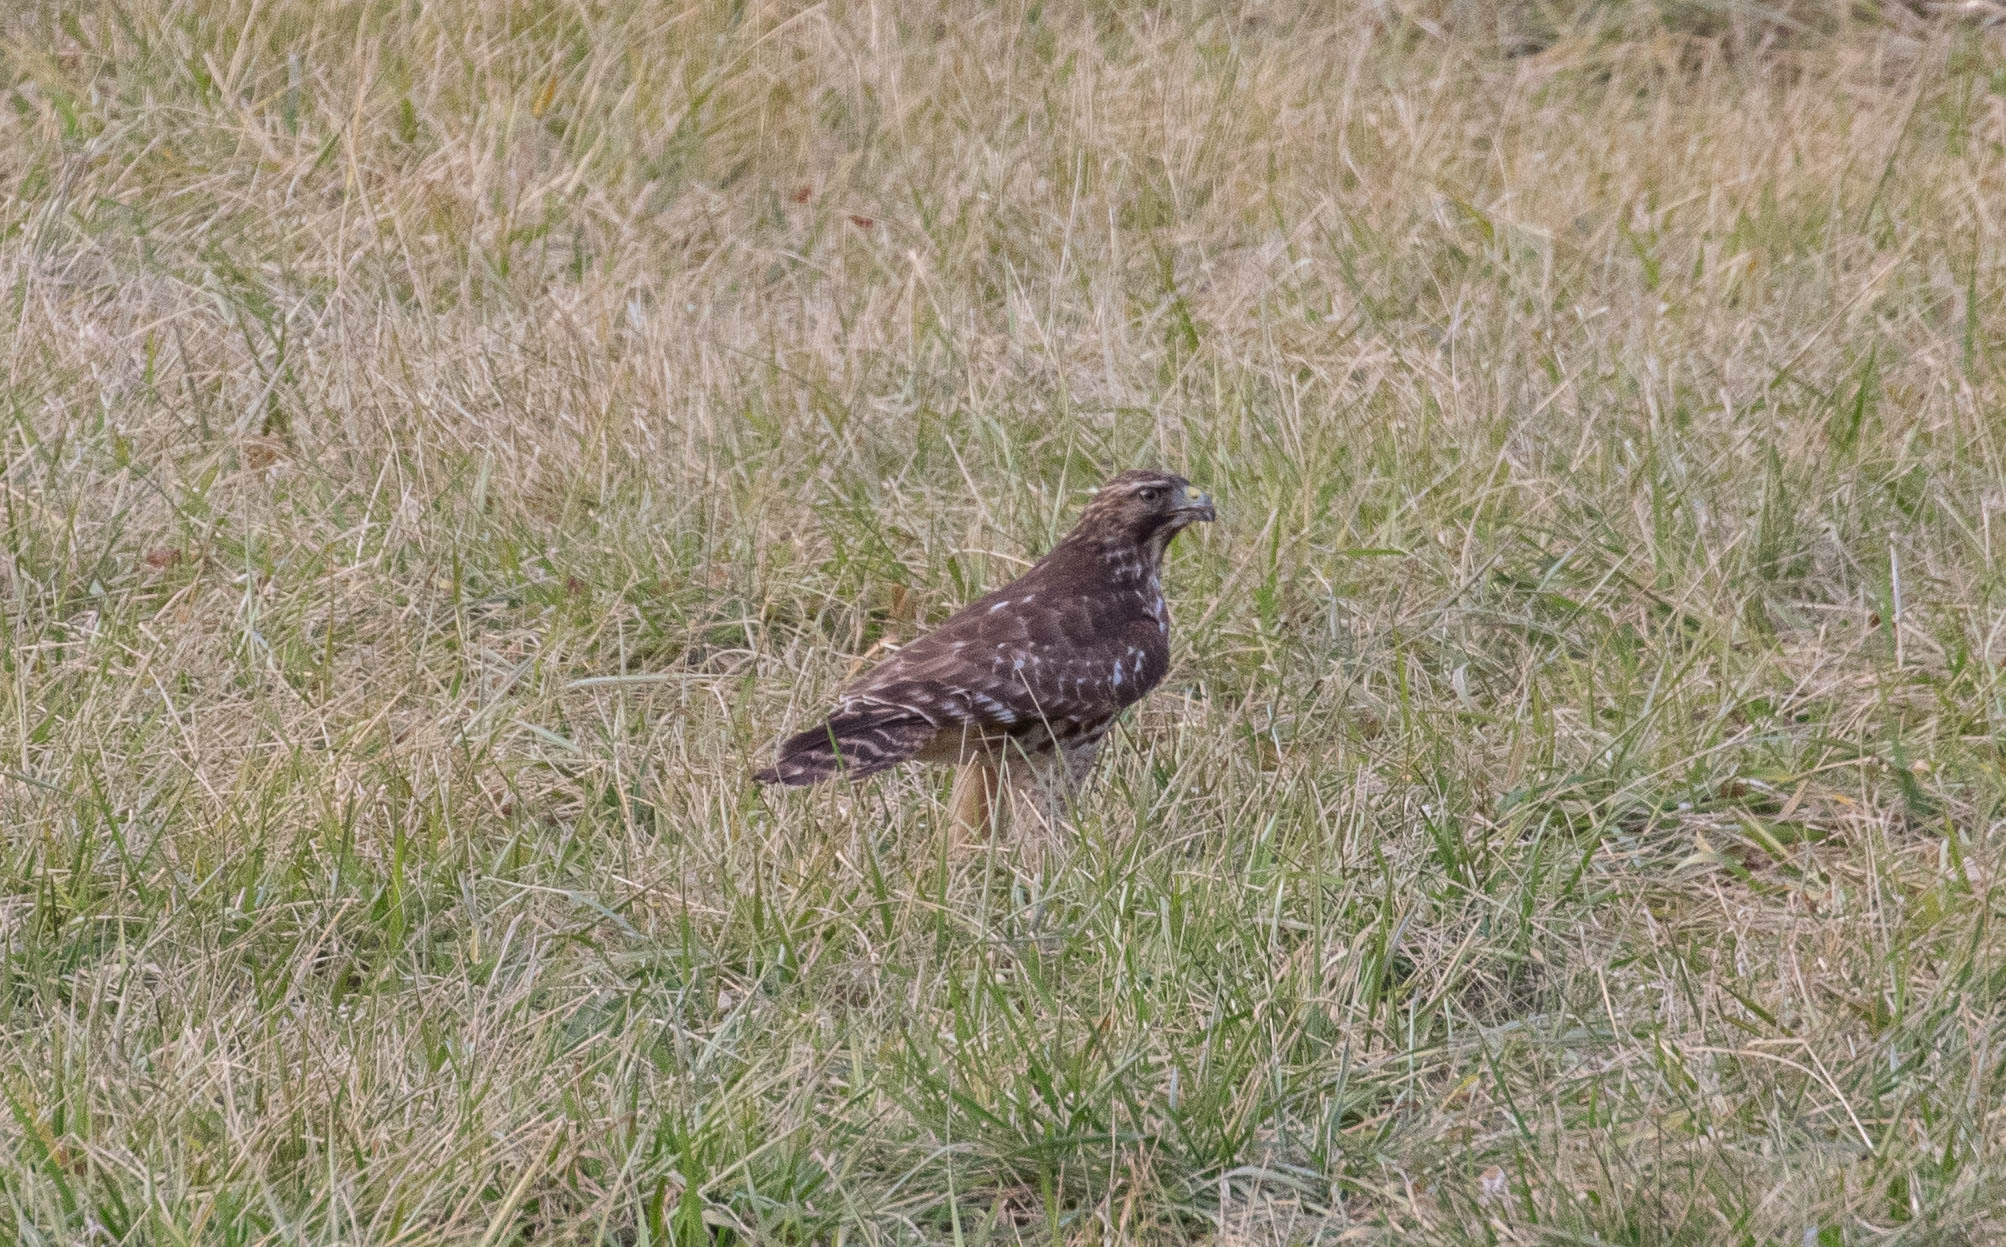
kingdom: Animalia
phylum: Chordata
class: Aves
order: Accipitriformes
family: Accipitridae
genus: Buteo
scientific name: Buteo lineatus
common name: Red-shouldered hawk
